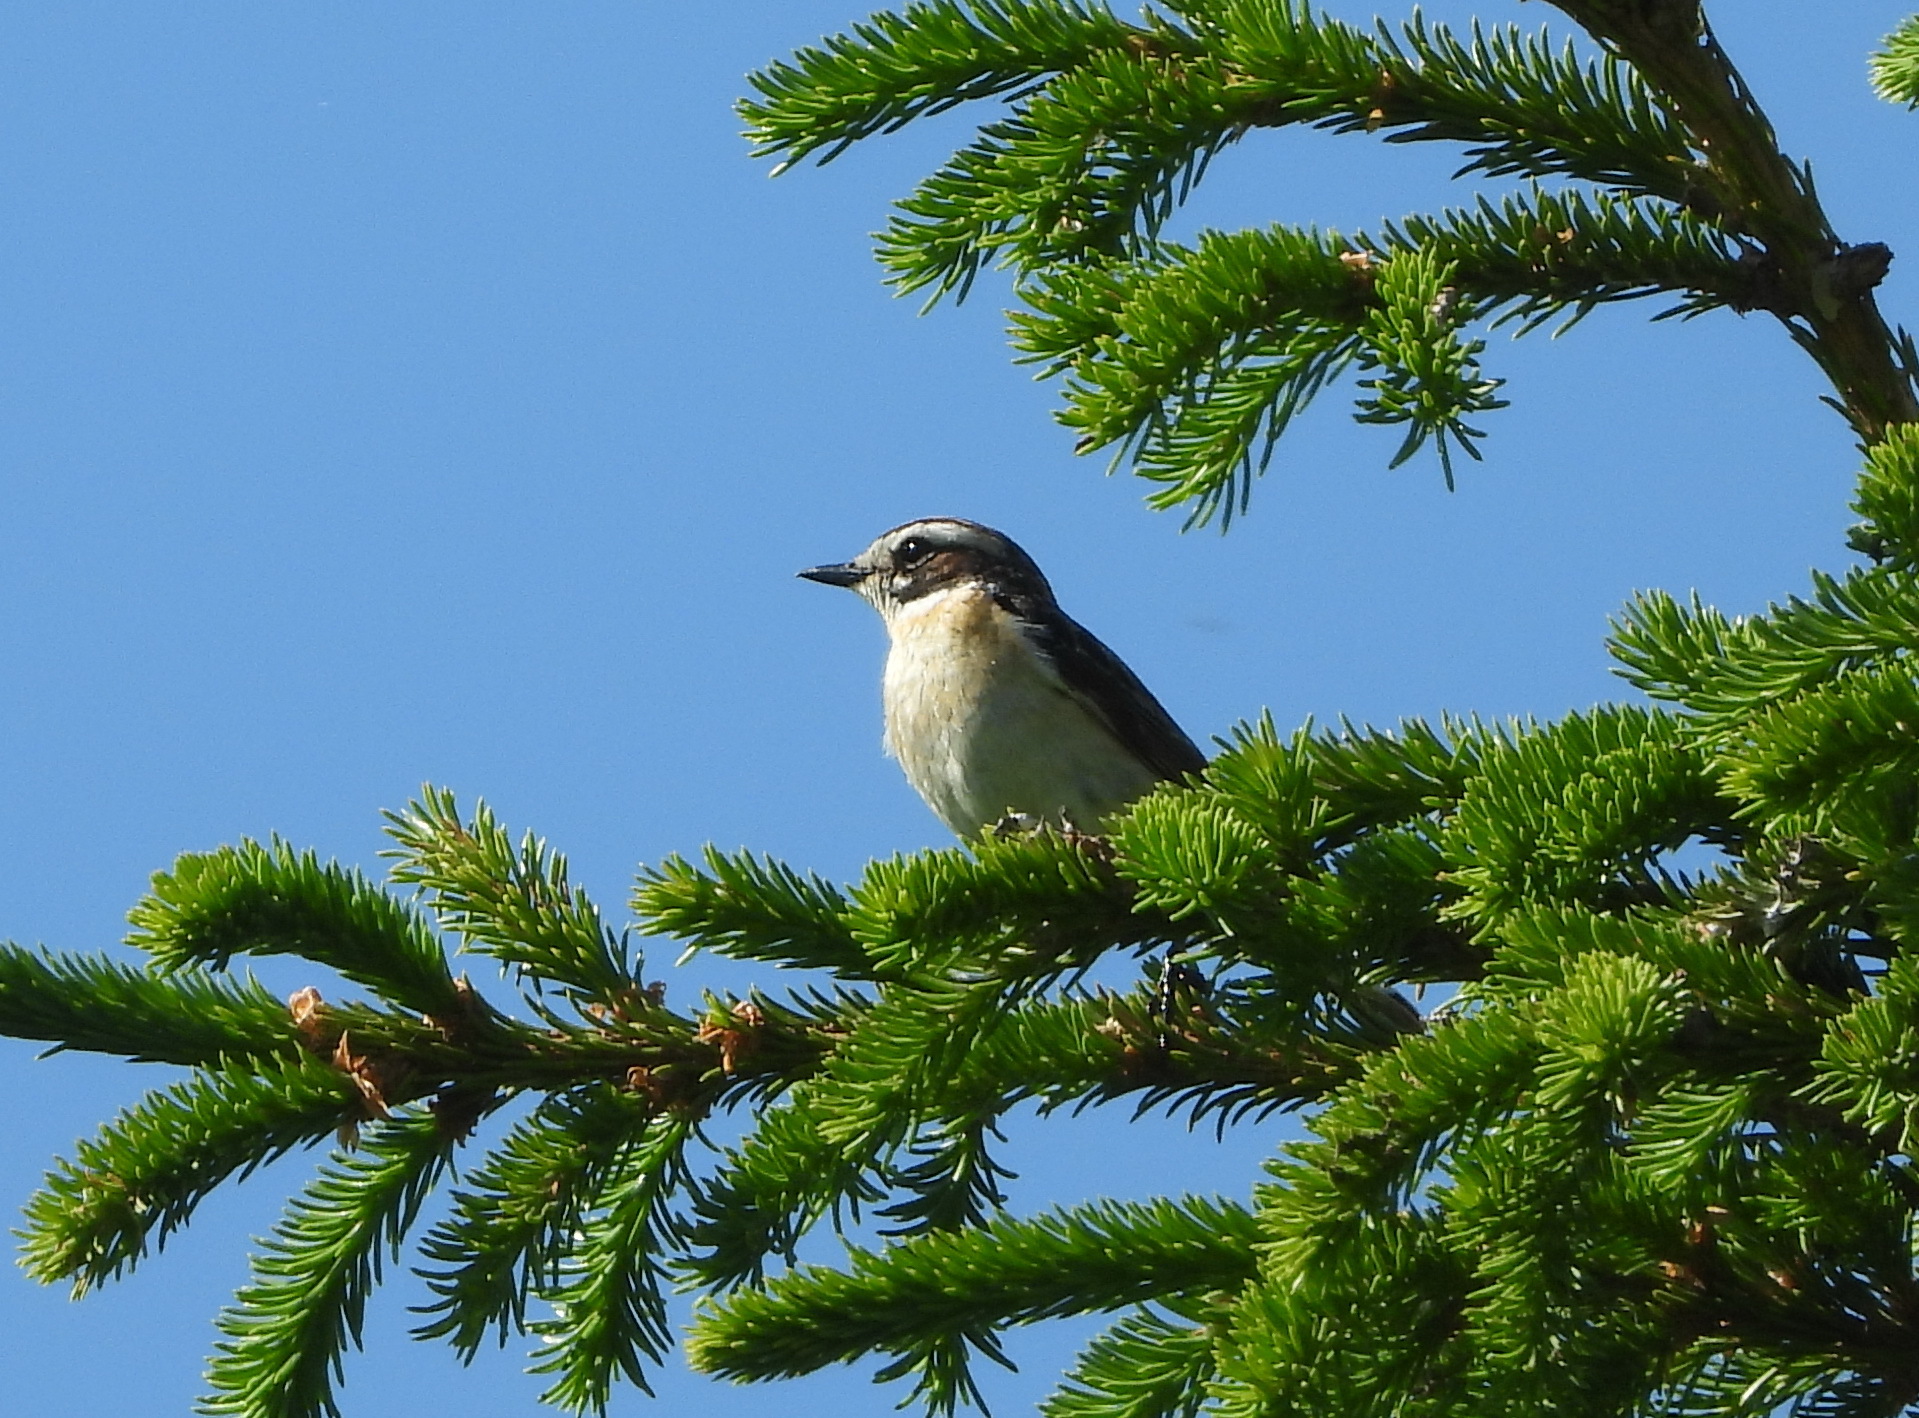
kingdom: Animalia
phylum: Chordata
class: Aves
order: Passeriformes
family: Muscicapidae
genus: Saxicola
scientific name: Saxicola rubetra
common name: Whinchat
